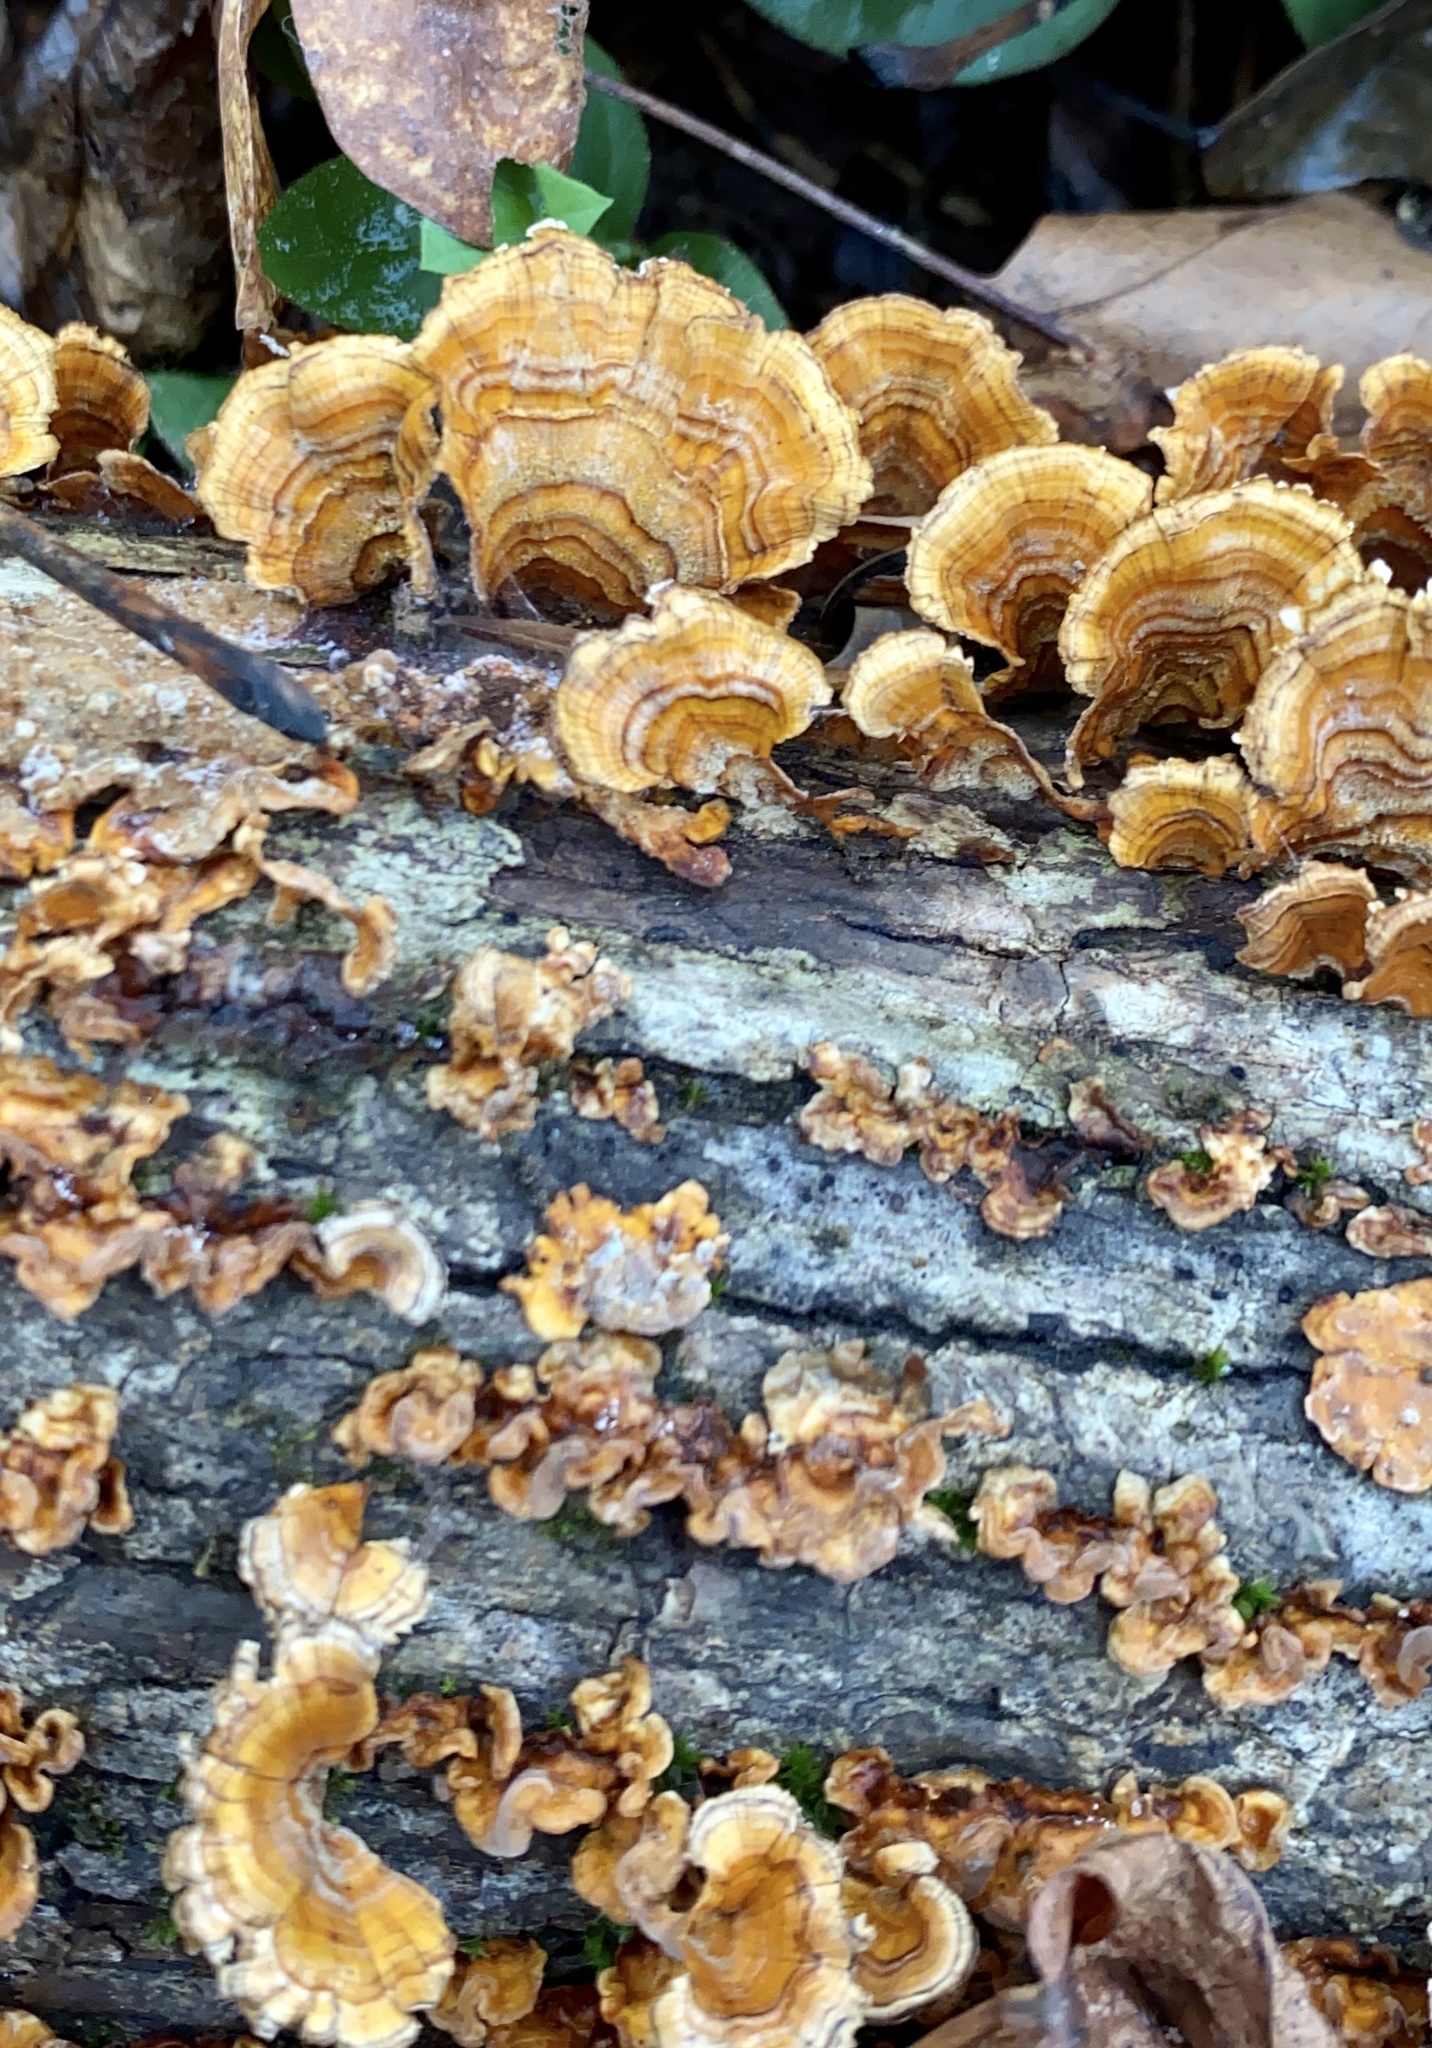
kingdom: Fungi
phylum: Basidiomycota
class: Agaricomycetes
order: Russulales
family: Stereaceae
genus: Stereum
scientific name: Stereum complicatum
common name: Crowded parchment
